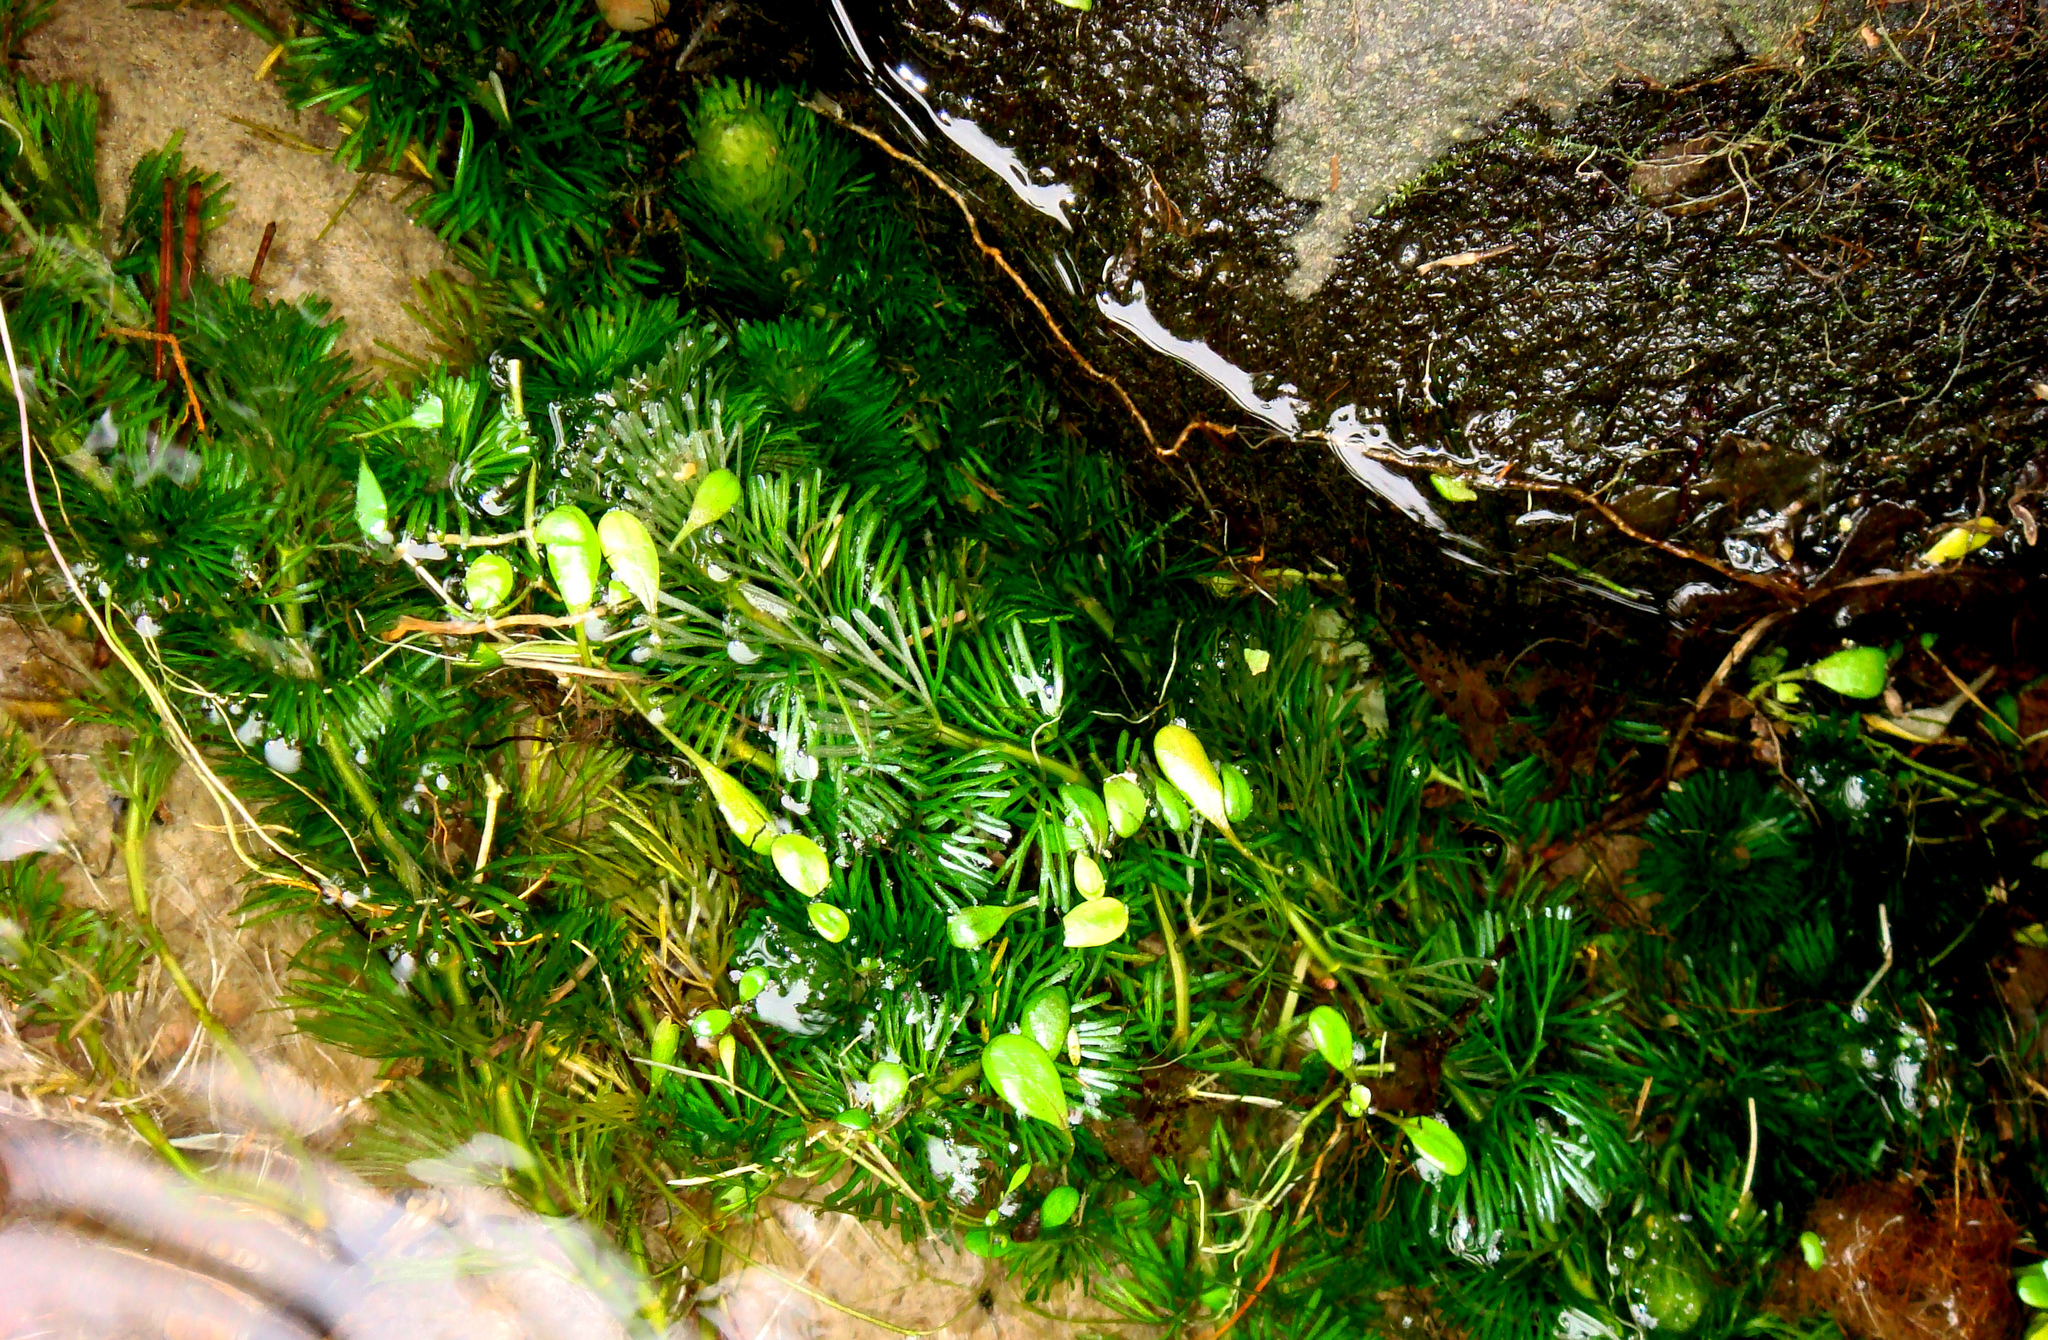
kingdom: Plantae
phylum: Tracheophyta
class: Magnoliopsida
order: Nymphaeales
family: Cabombaceae
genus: Cabomba
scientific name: Cabomba caroliniana
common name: Fanwort
